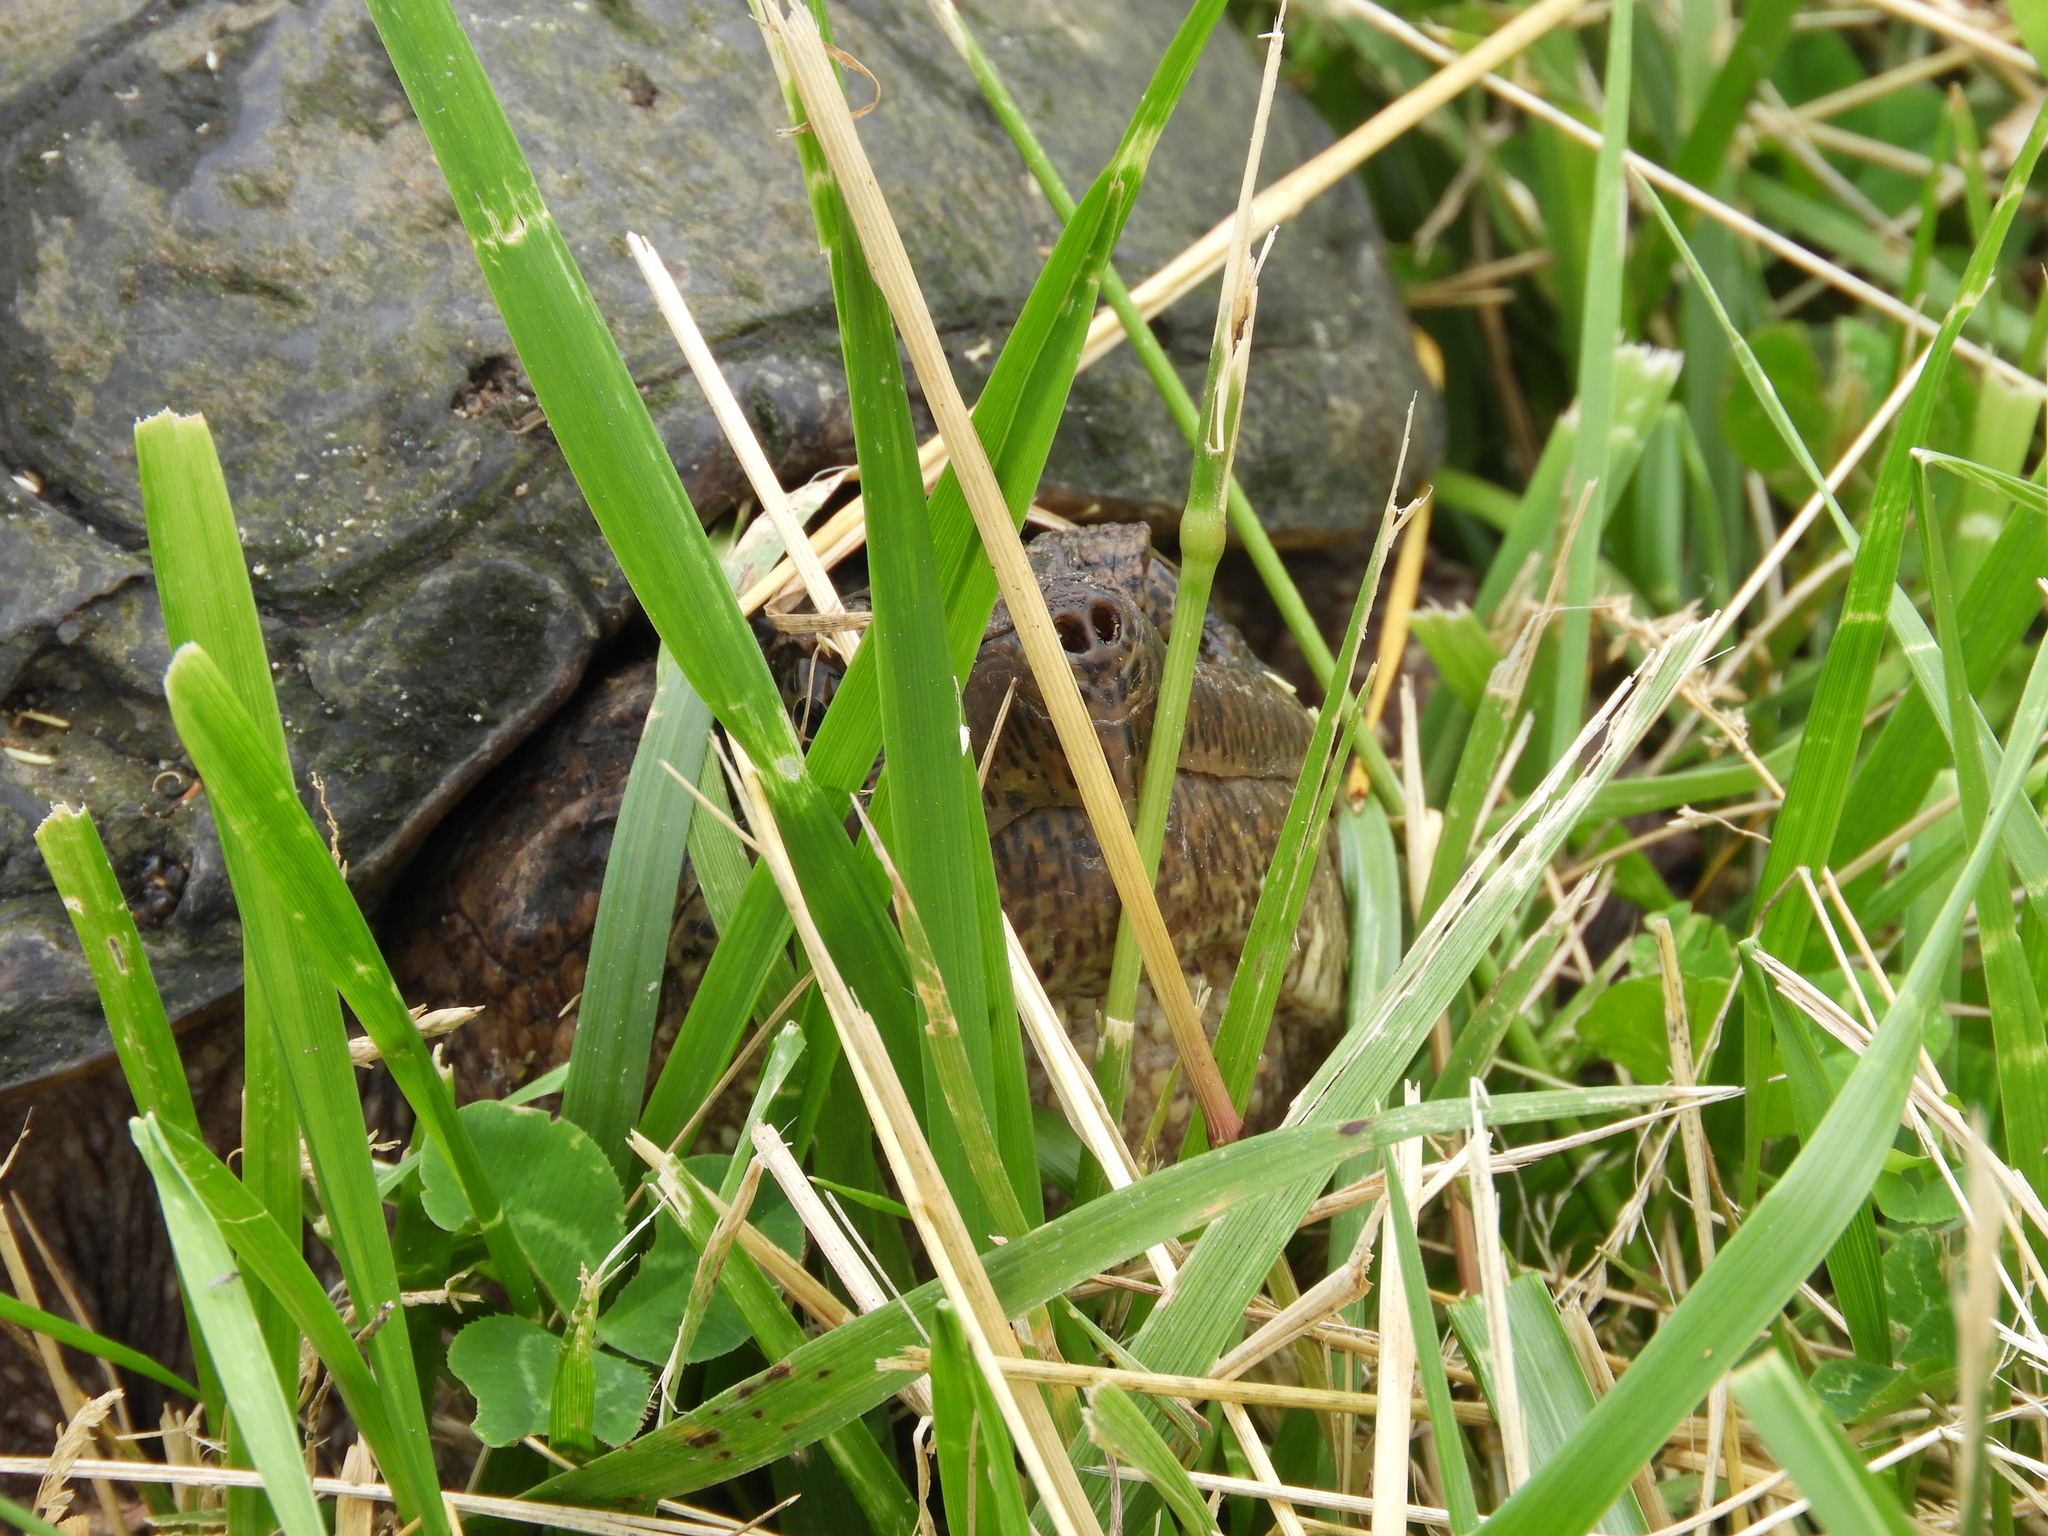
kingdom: Animalia
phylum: Chordata
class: Testudines
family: Chelydridae
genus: Chelydra
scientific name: Chelydra serpentina
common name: Common snapping turtle
